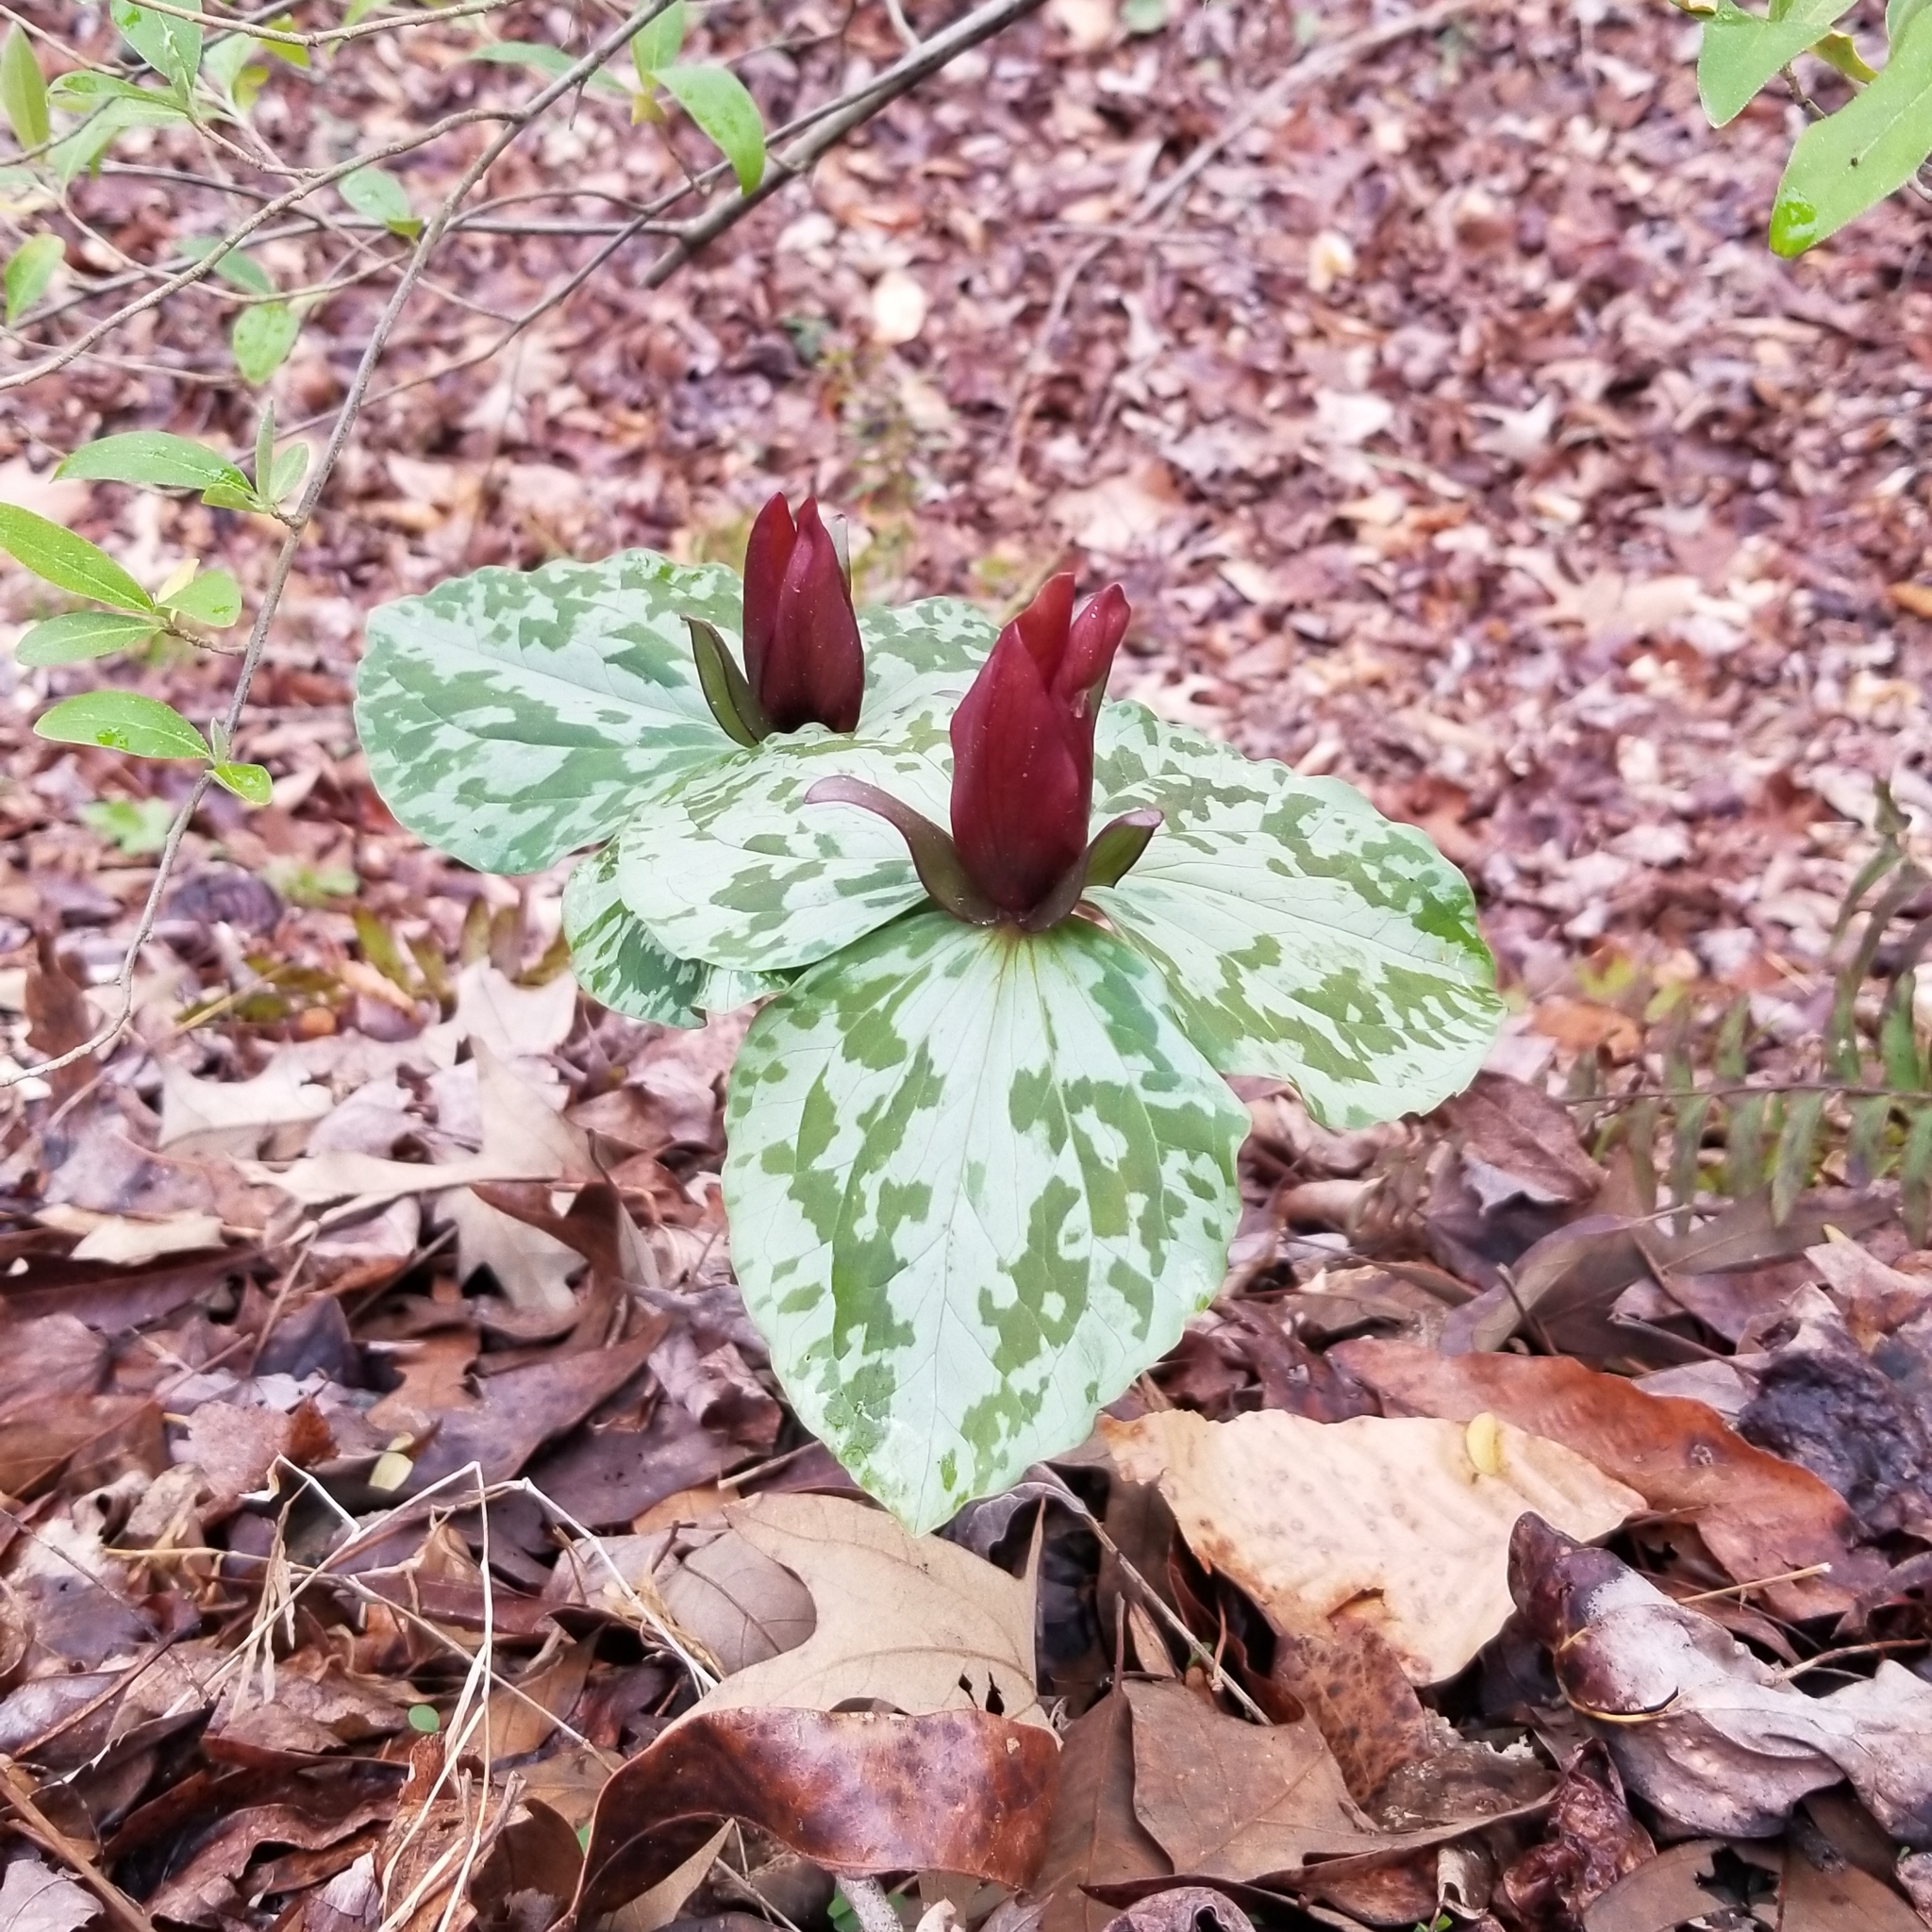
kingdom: Plantae
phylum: Tracheophyta
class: Liliopsida
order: Liliales
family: Melanthiaceae
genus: Trillium
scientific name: Trillium cuneatum
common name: Cuneate trillium
